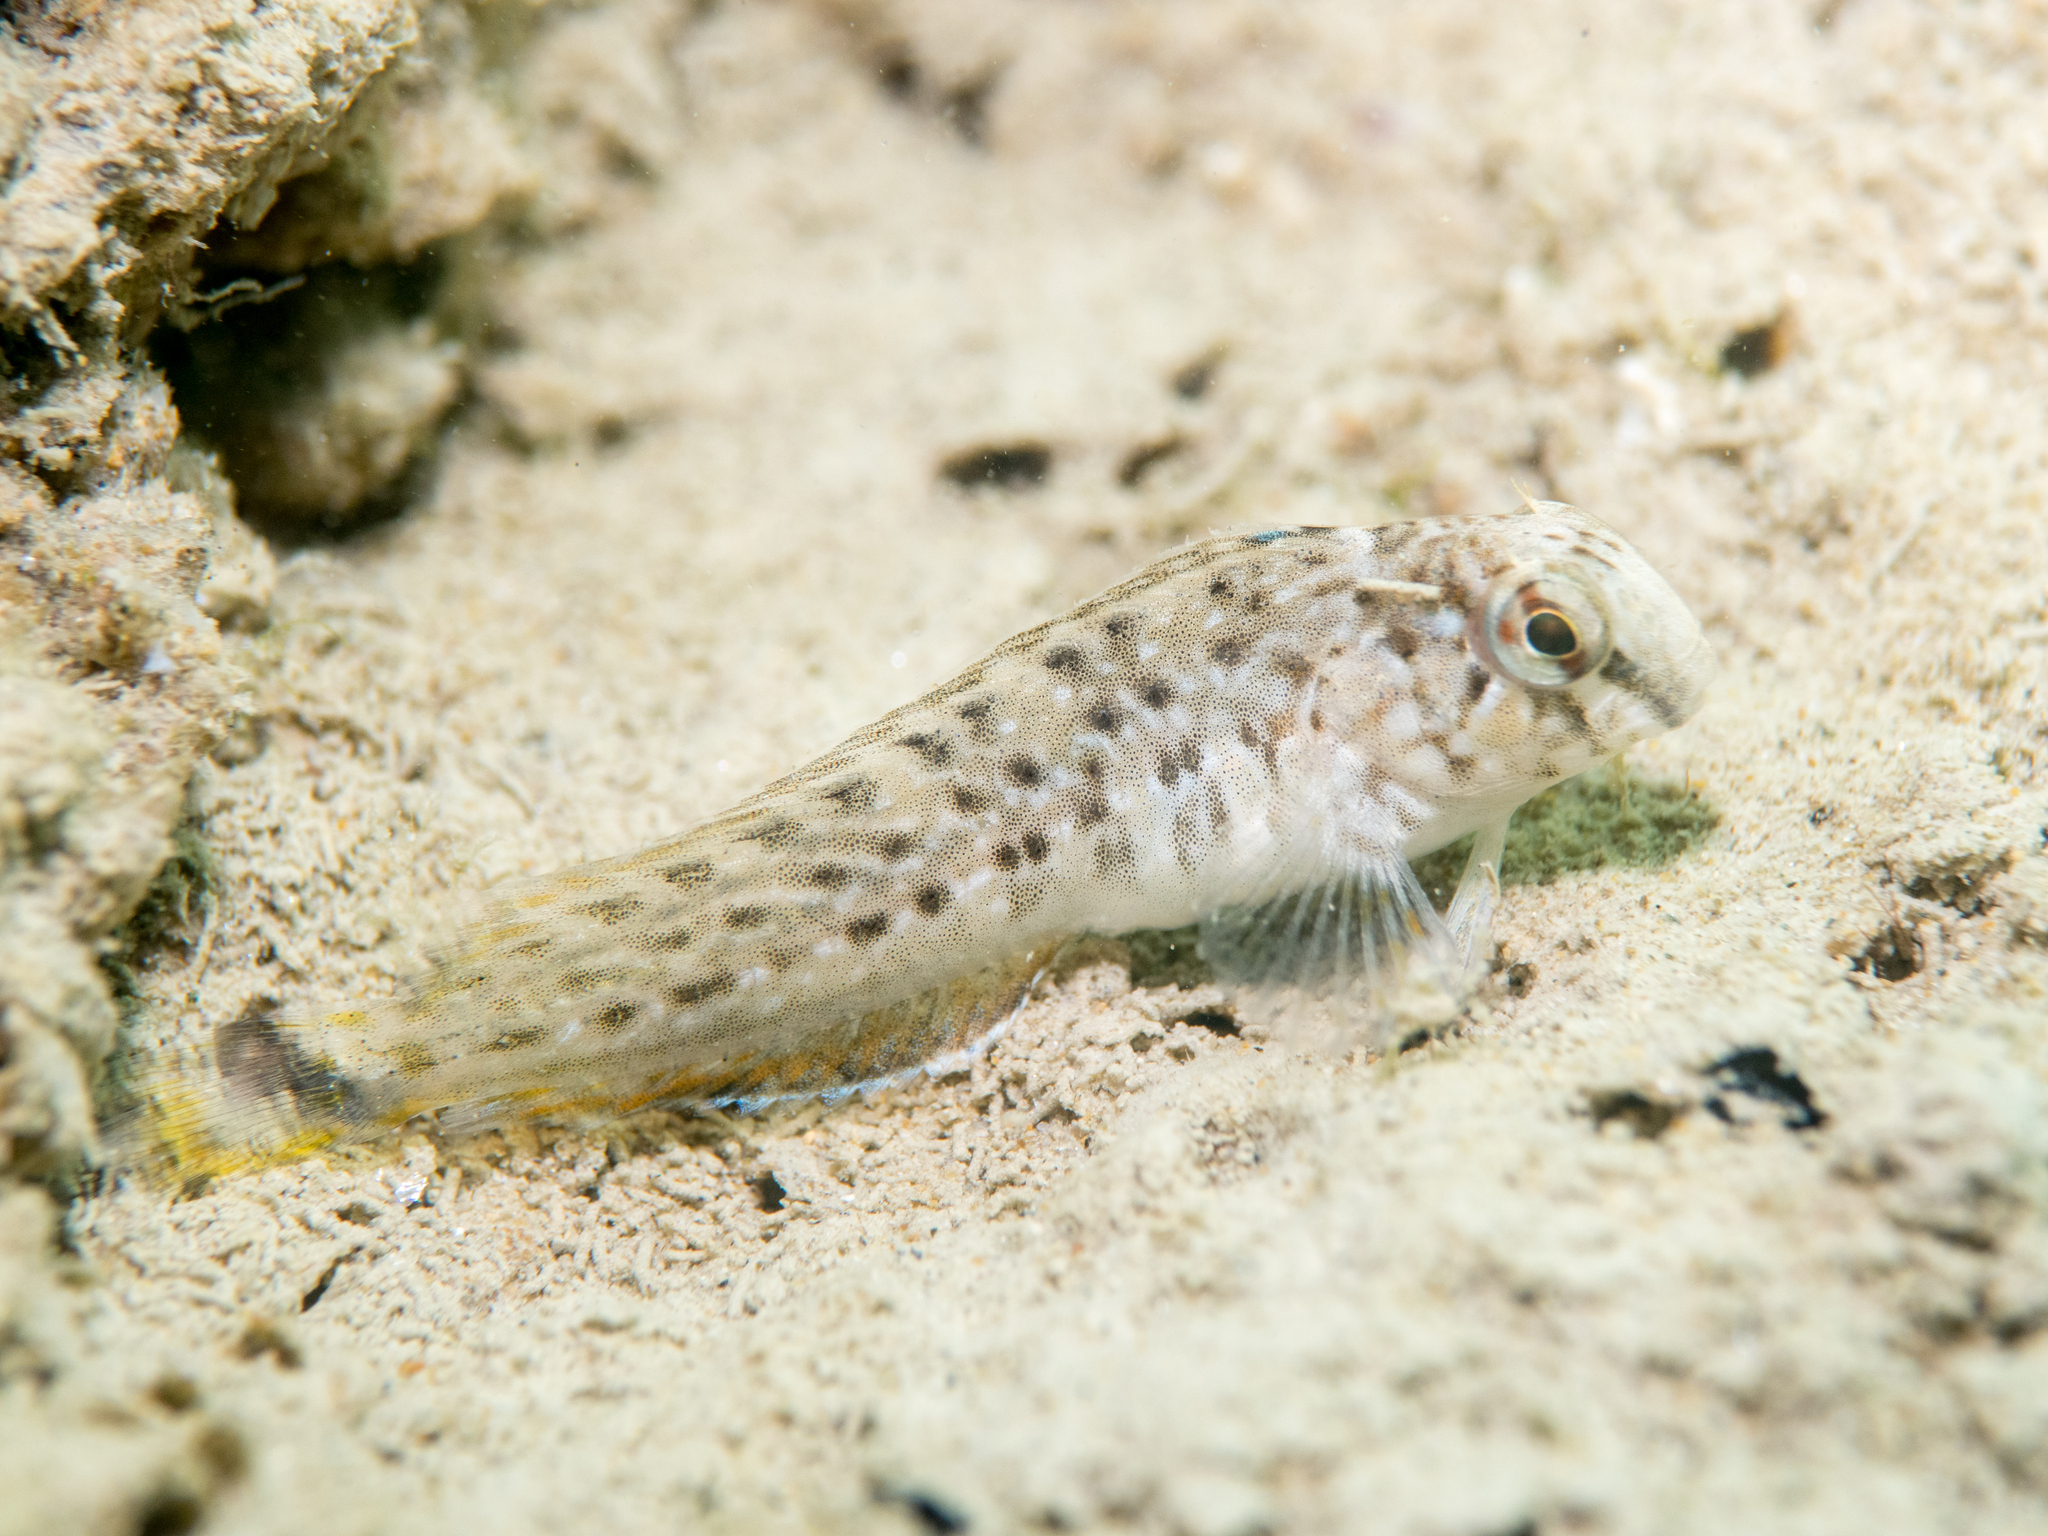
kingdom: Animalia
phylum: Chordata
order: Perciformes
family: Blenniidae
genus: Parablennius
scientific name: Parablennius sanguinolentus
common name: Black sea blenny
